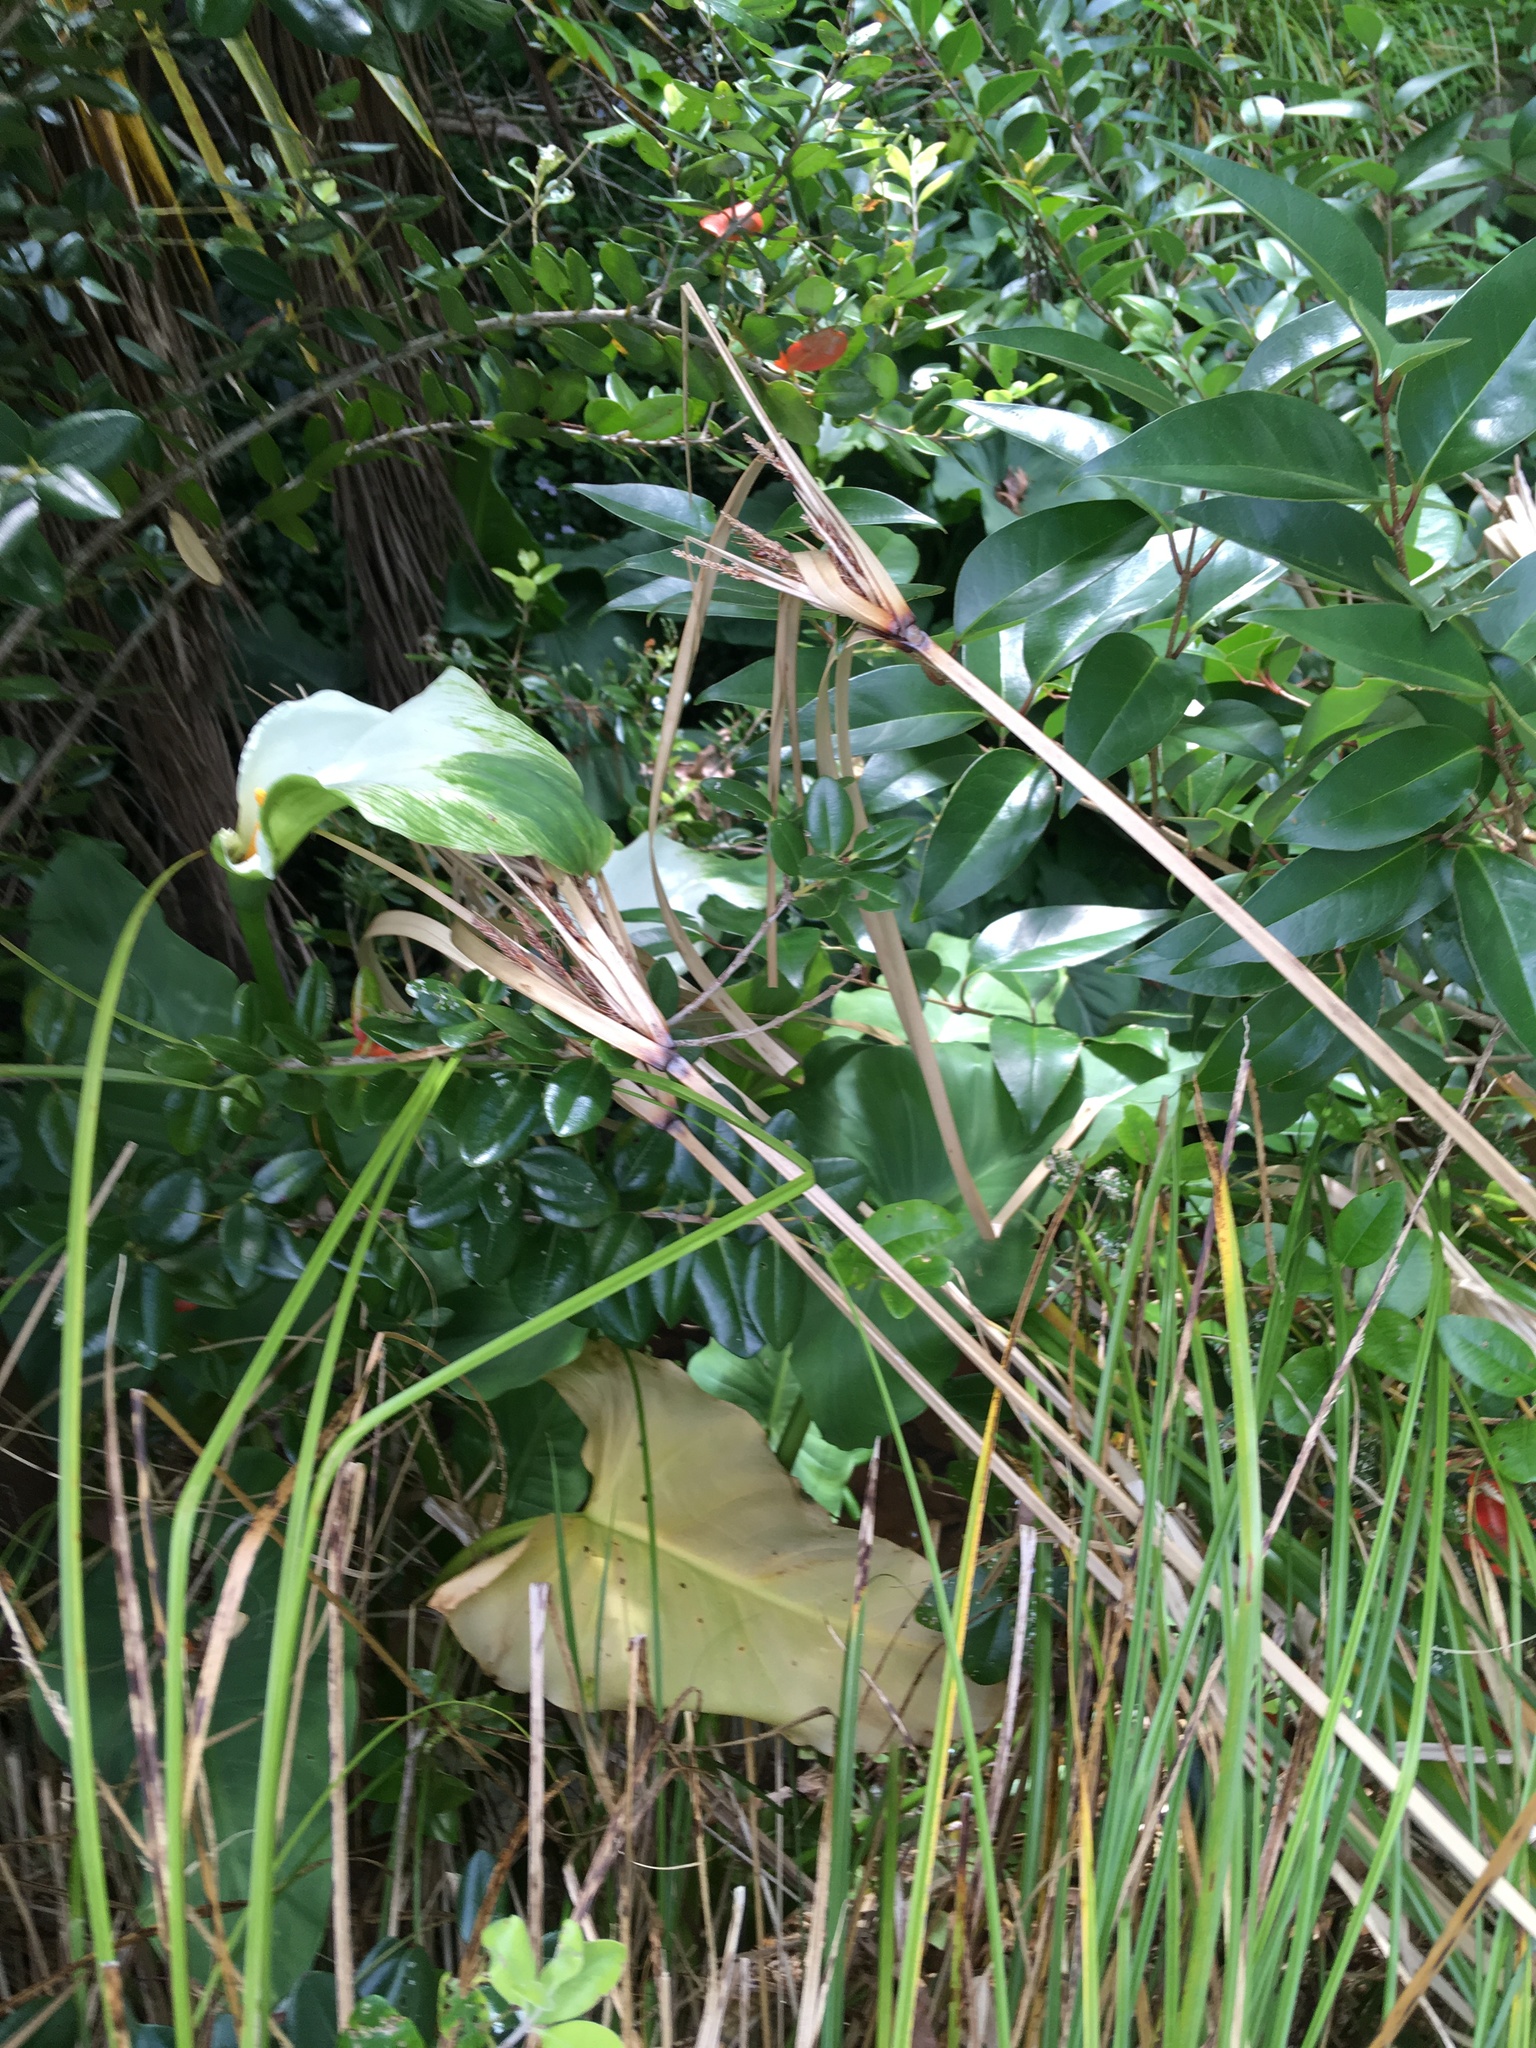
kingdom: Plantae
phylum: Tracheophyta
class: Liliopsida
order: Poales
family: Cyperaceae
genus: Cyperus
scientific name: Cyperus ustulatus
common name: Giant umbrella-sedge
